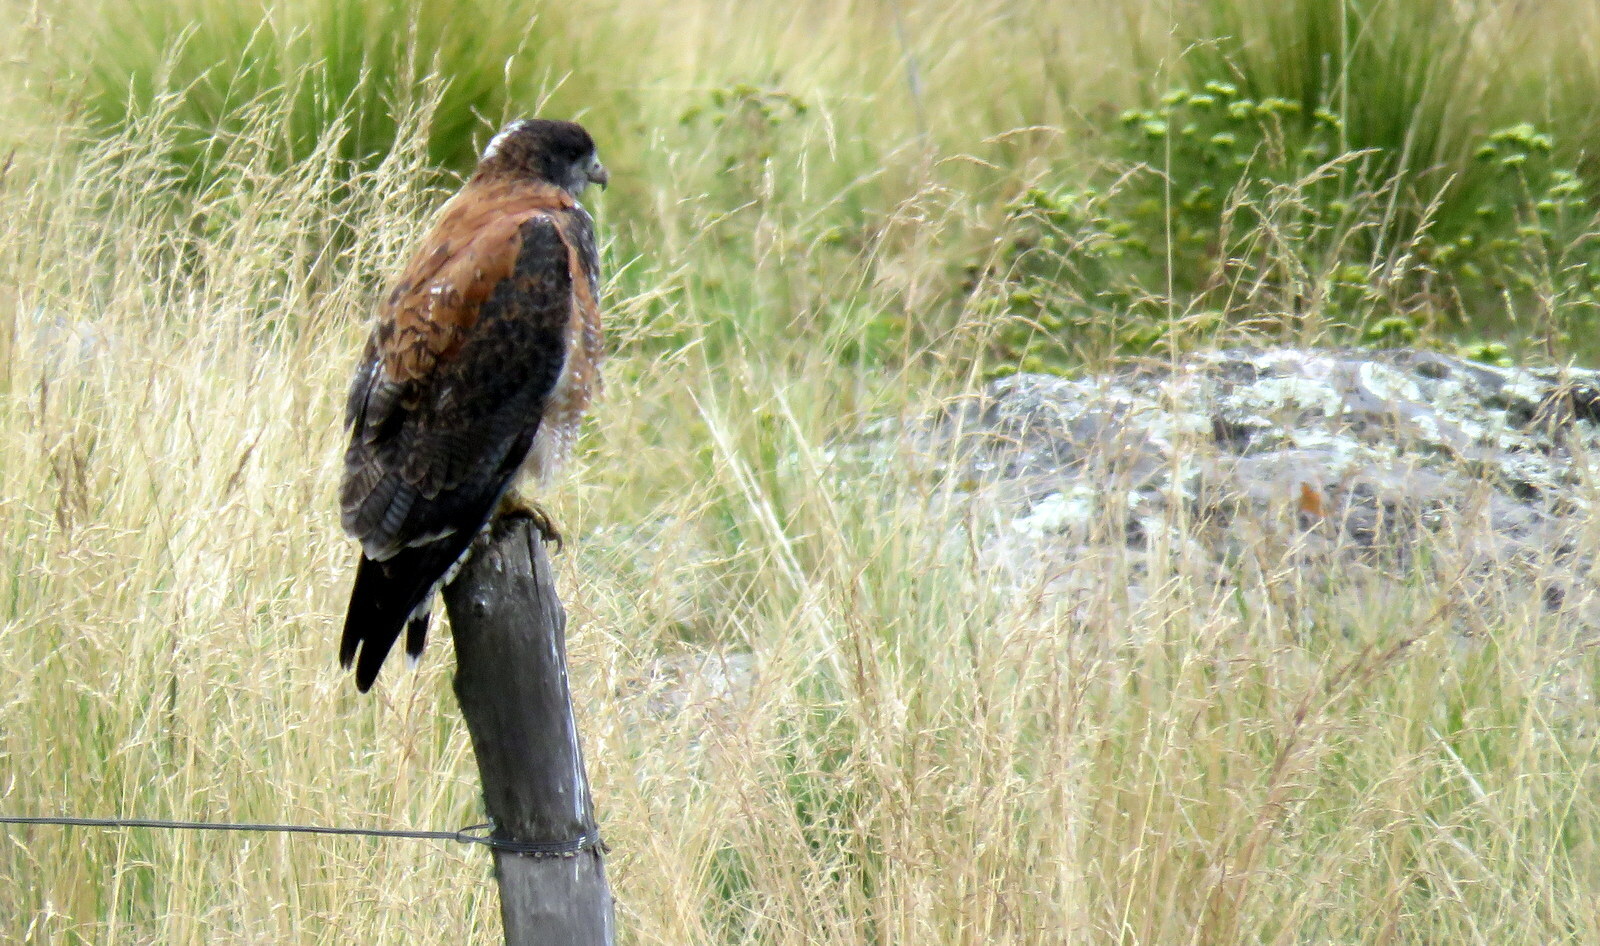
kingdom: Animalia
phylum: Chordata
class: Aves
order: Accipitriformes
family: Accipitridae
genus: Buteo
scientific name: Buteo polyosoma
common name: Variable hawk
